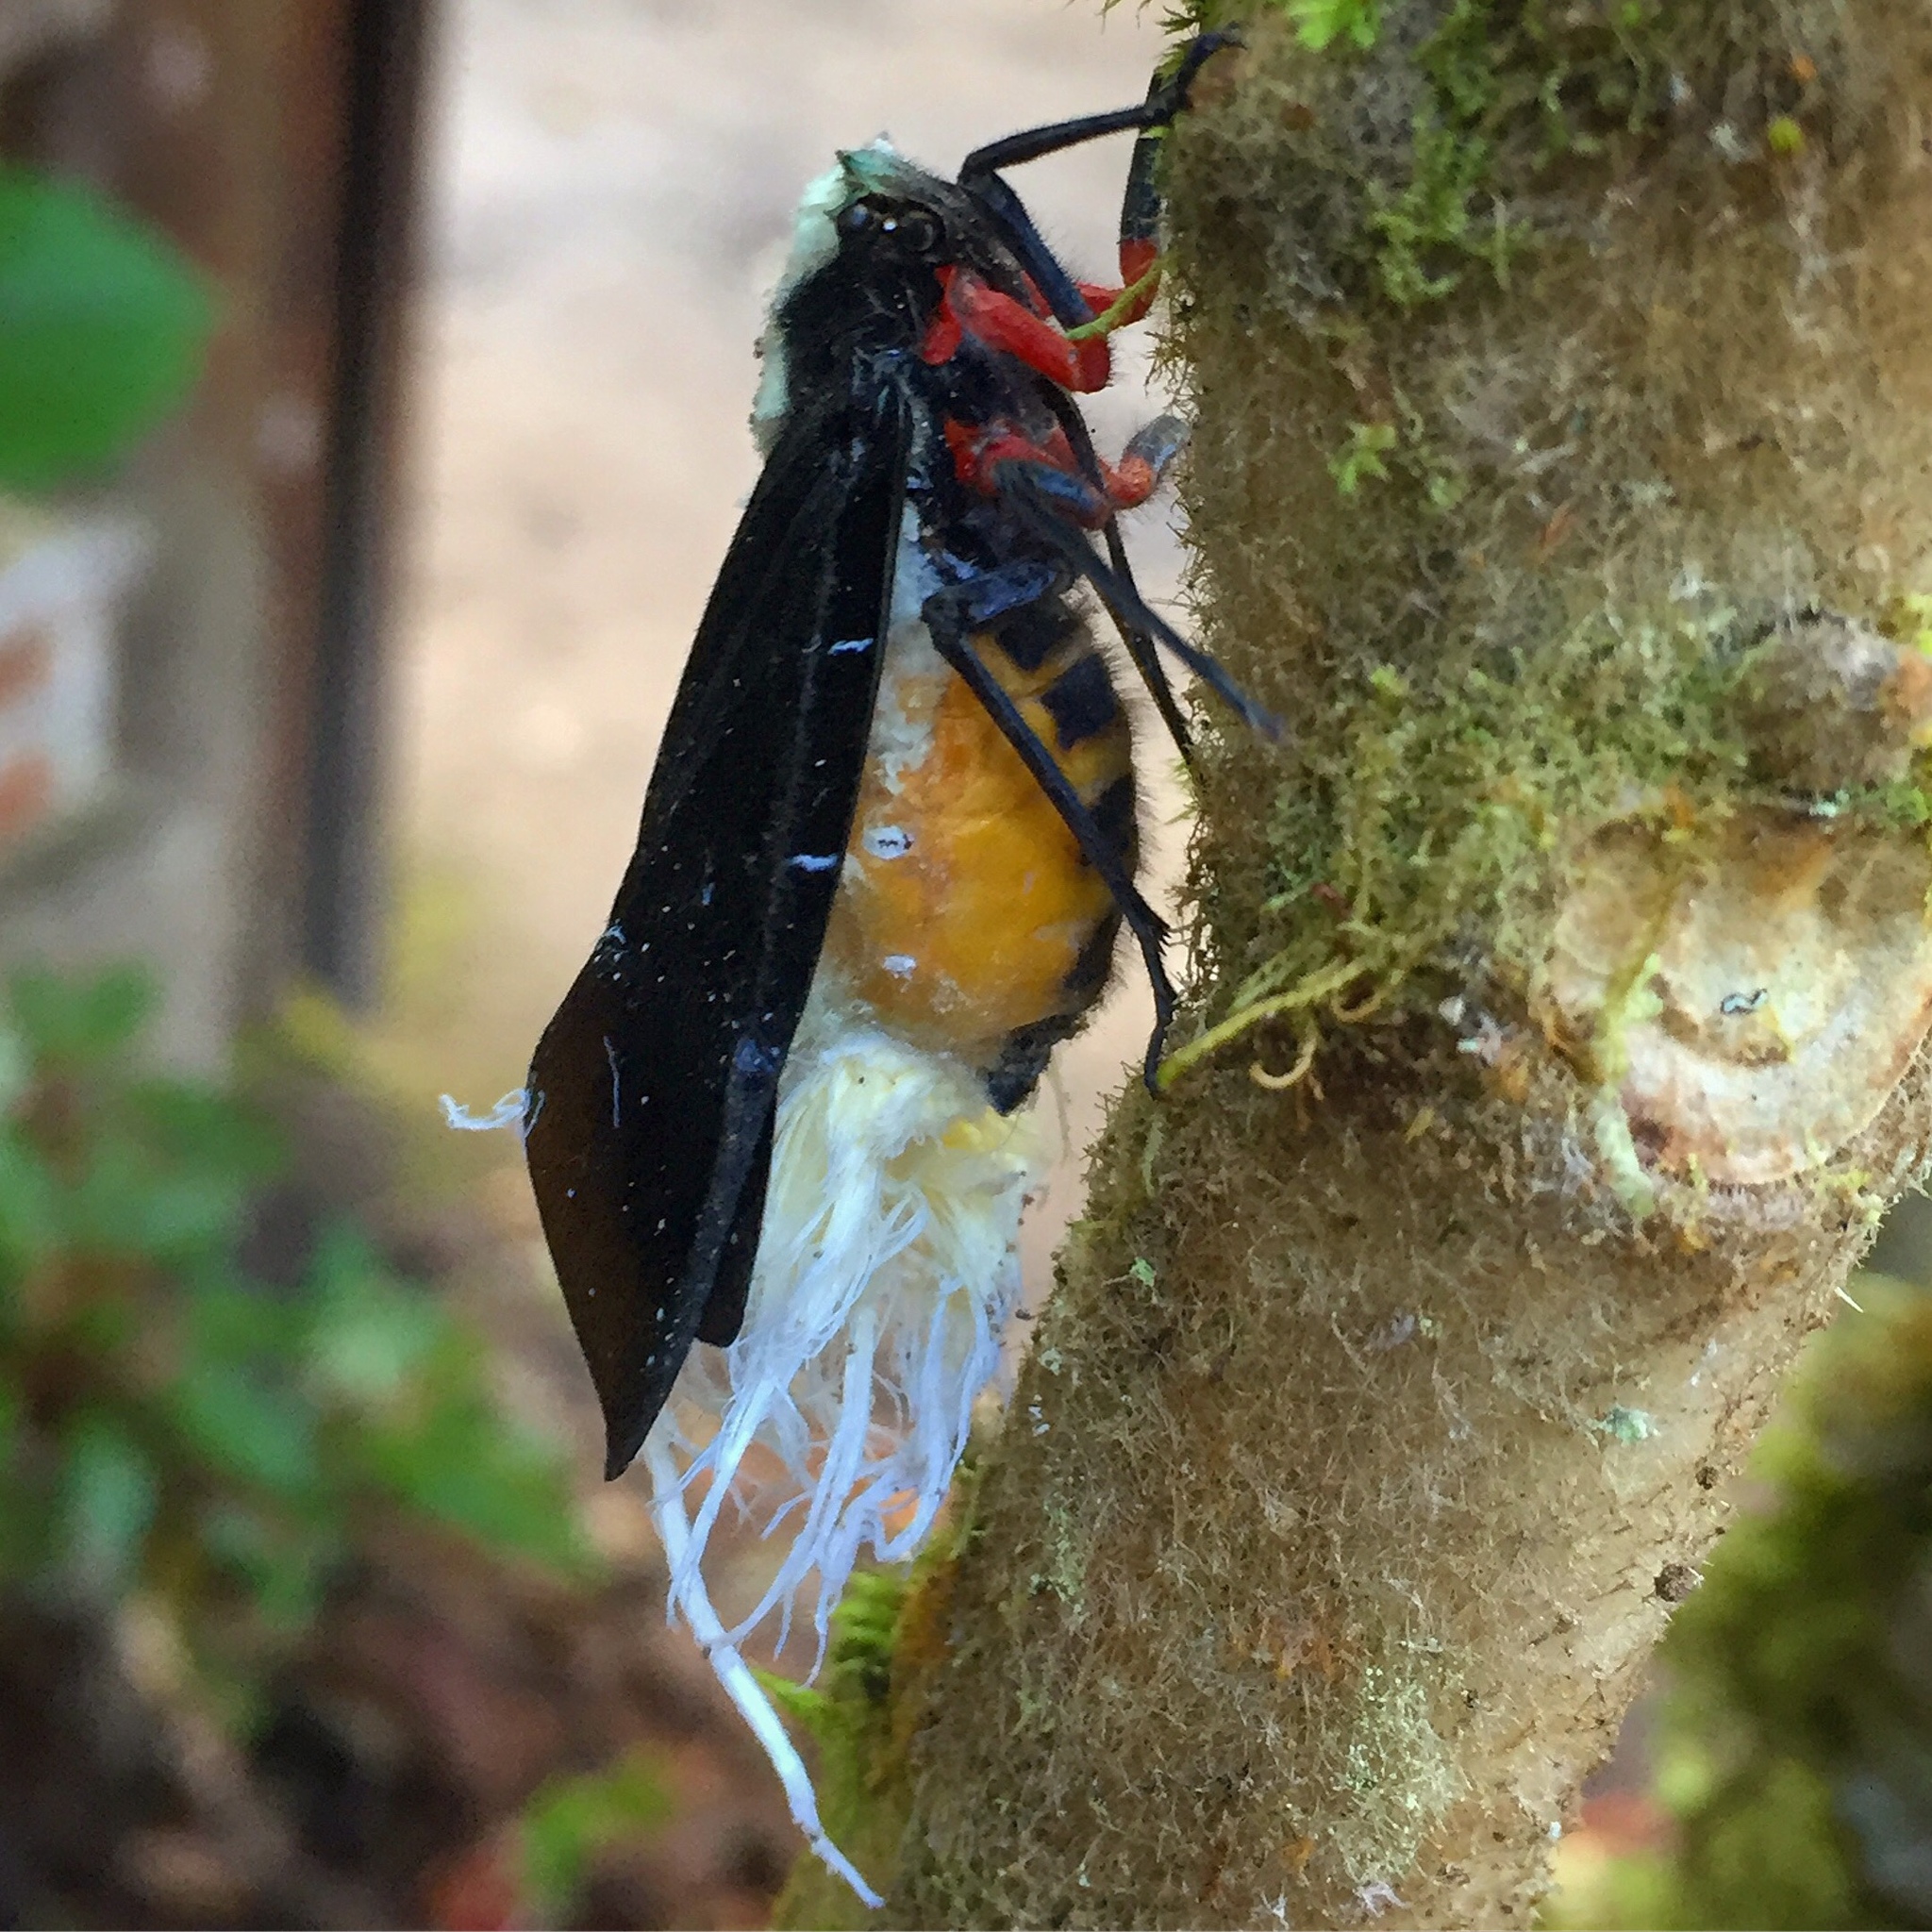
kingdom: Animalia
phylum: Arthropoda
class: Insecta
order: Hemiptera
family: Fulgoridae
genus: Menenia
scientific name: Menenia terebrifera
